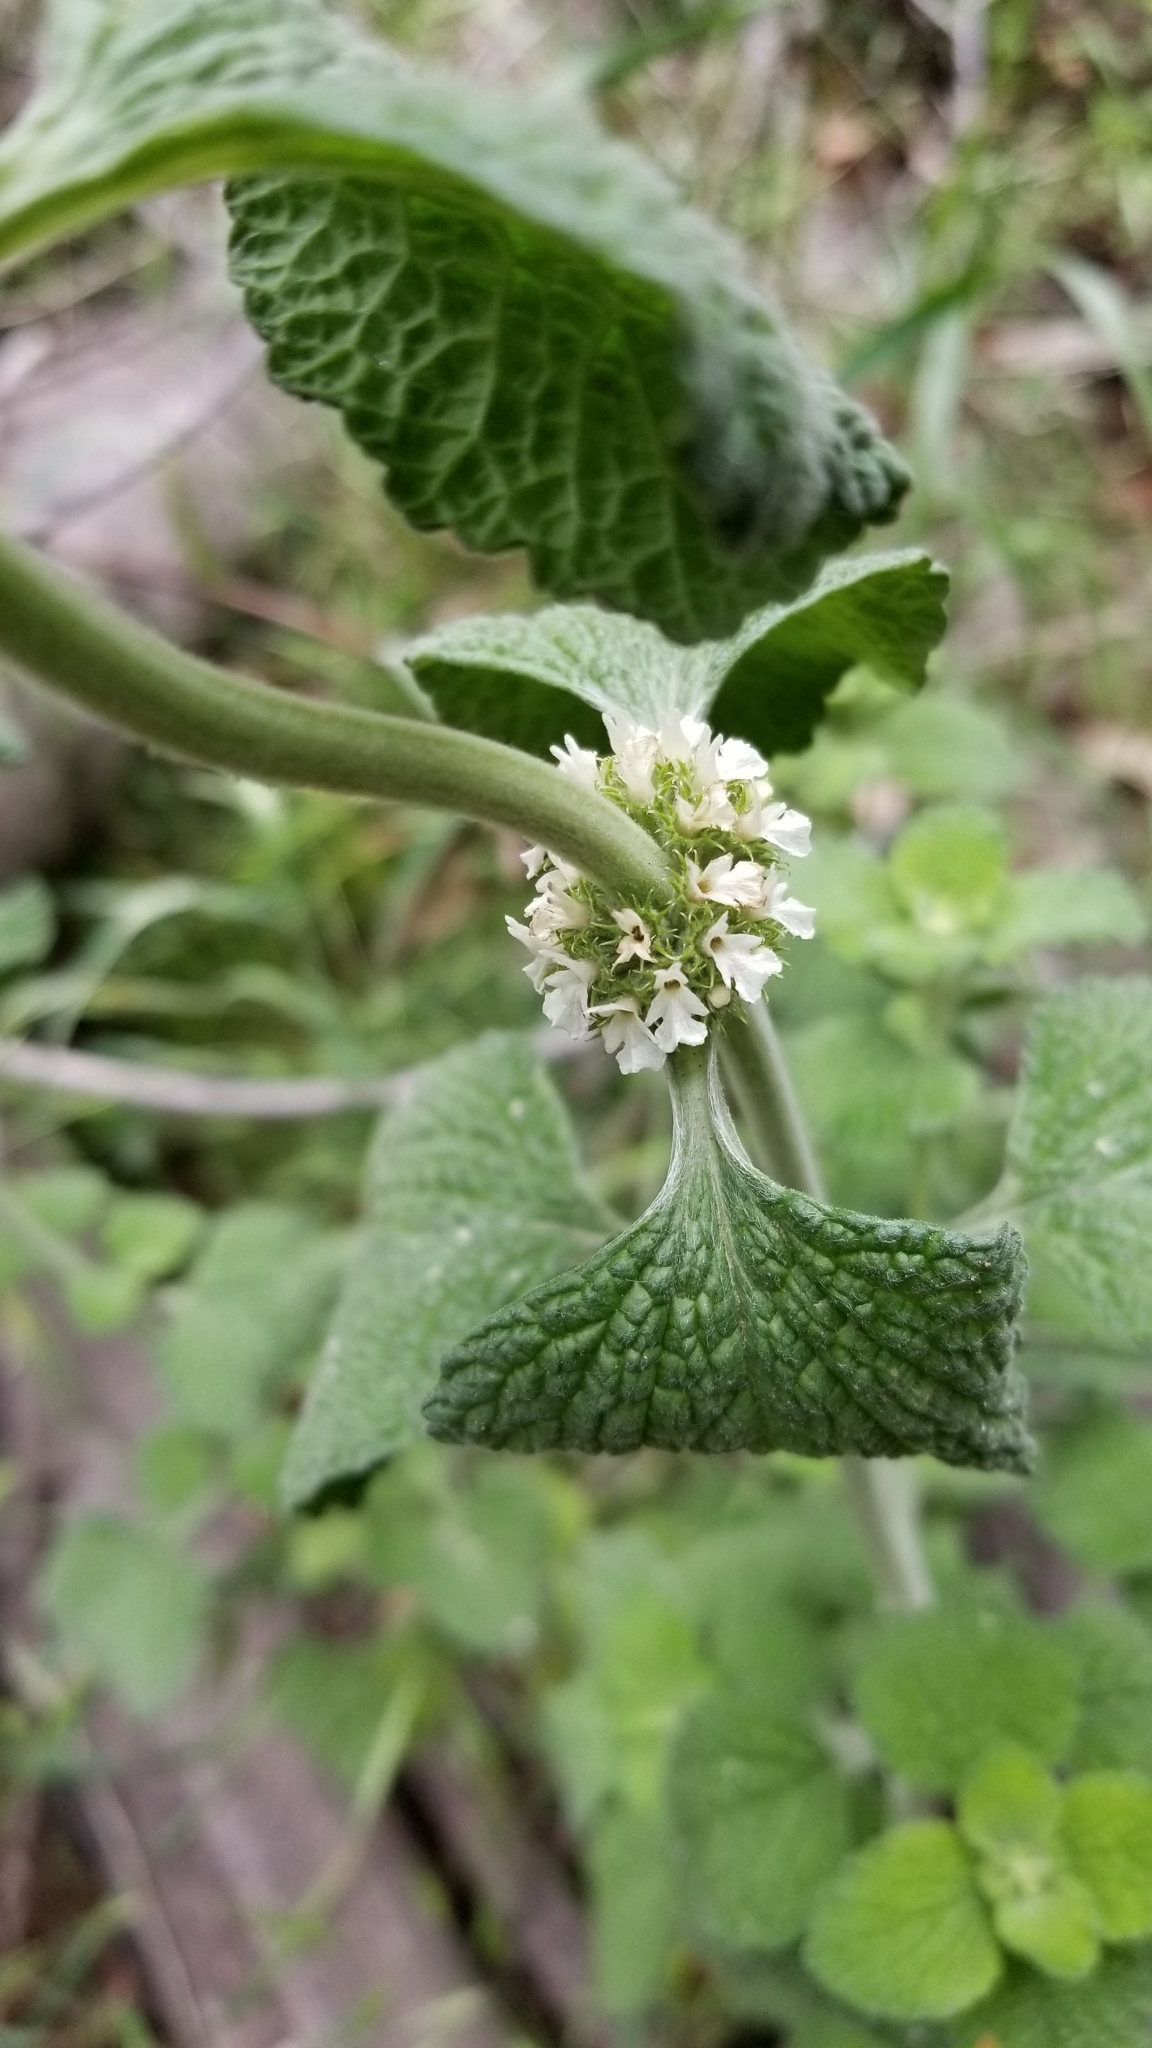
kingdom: Plantae
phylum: Tracheophyta
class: Magnoliopsida
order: Lamiales
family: Lamiaceae
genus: Marrubium
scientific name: Marrubium vulgare
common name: Horehound
